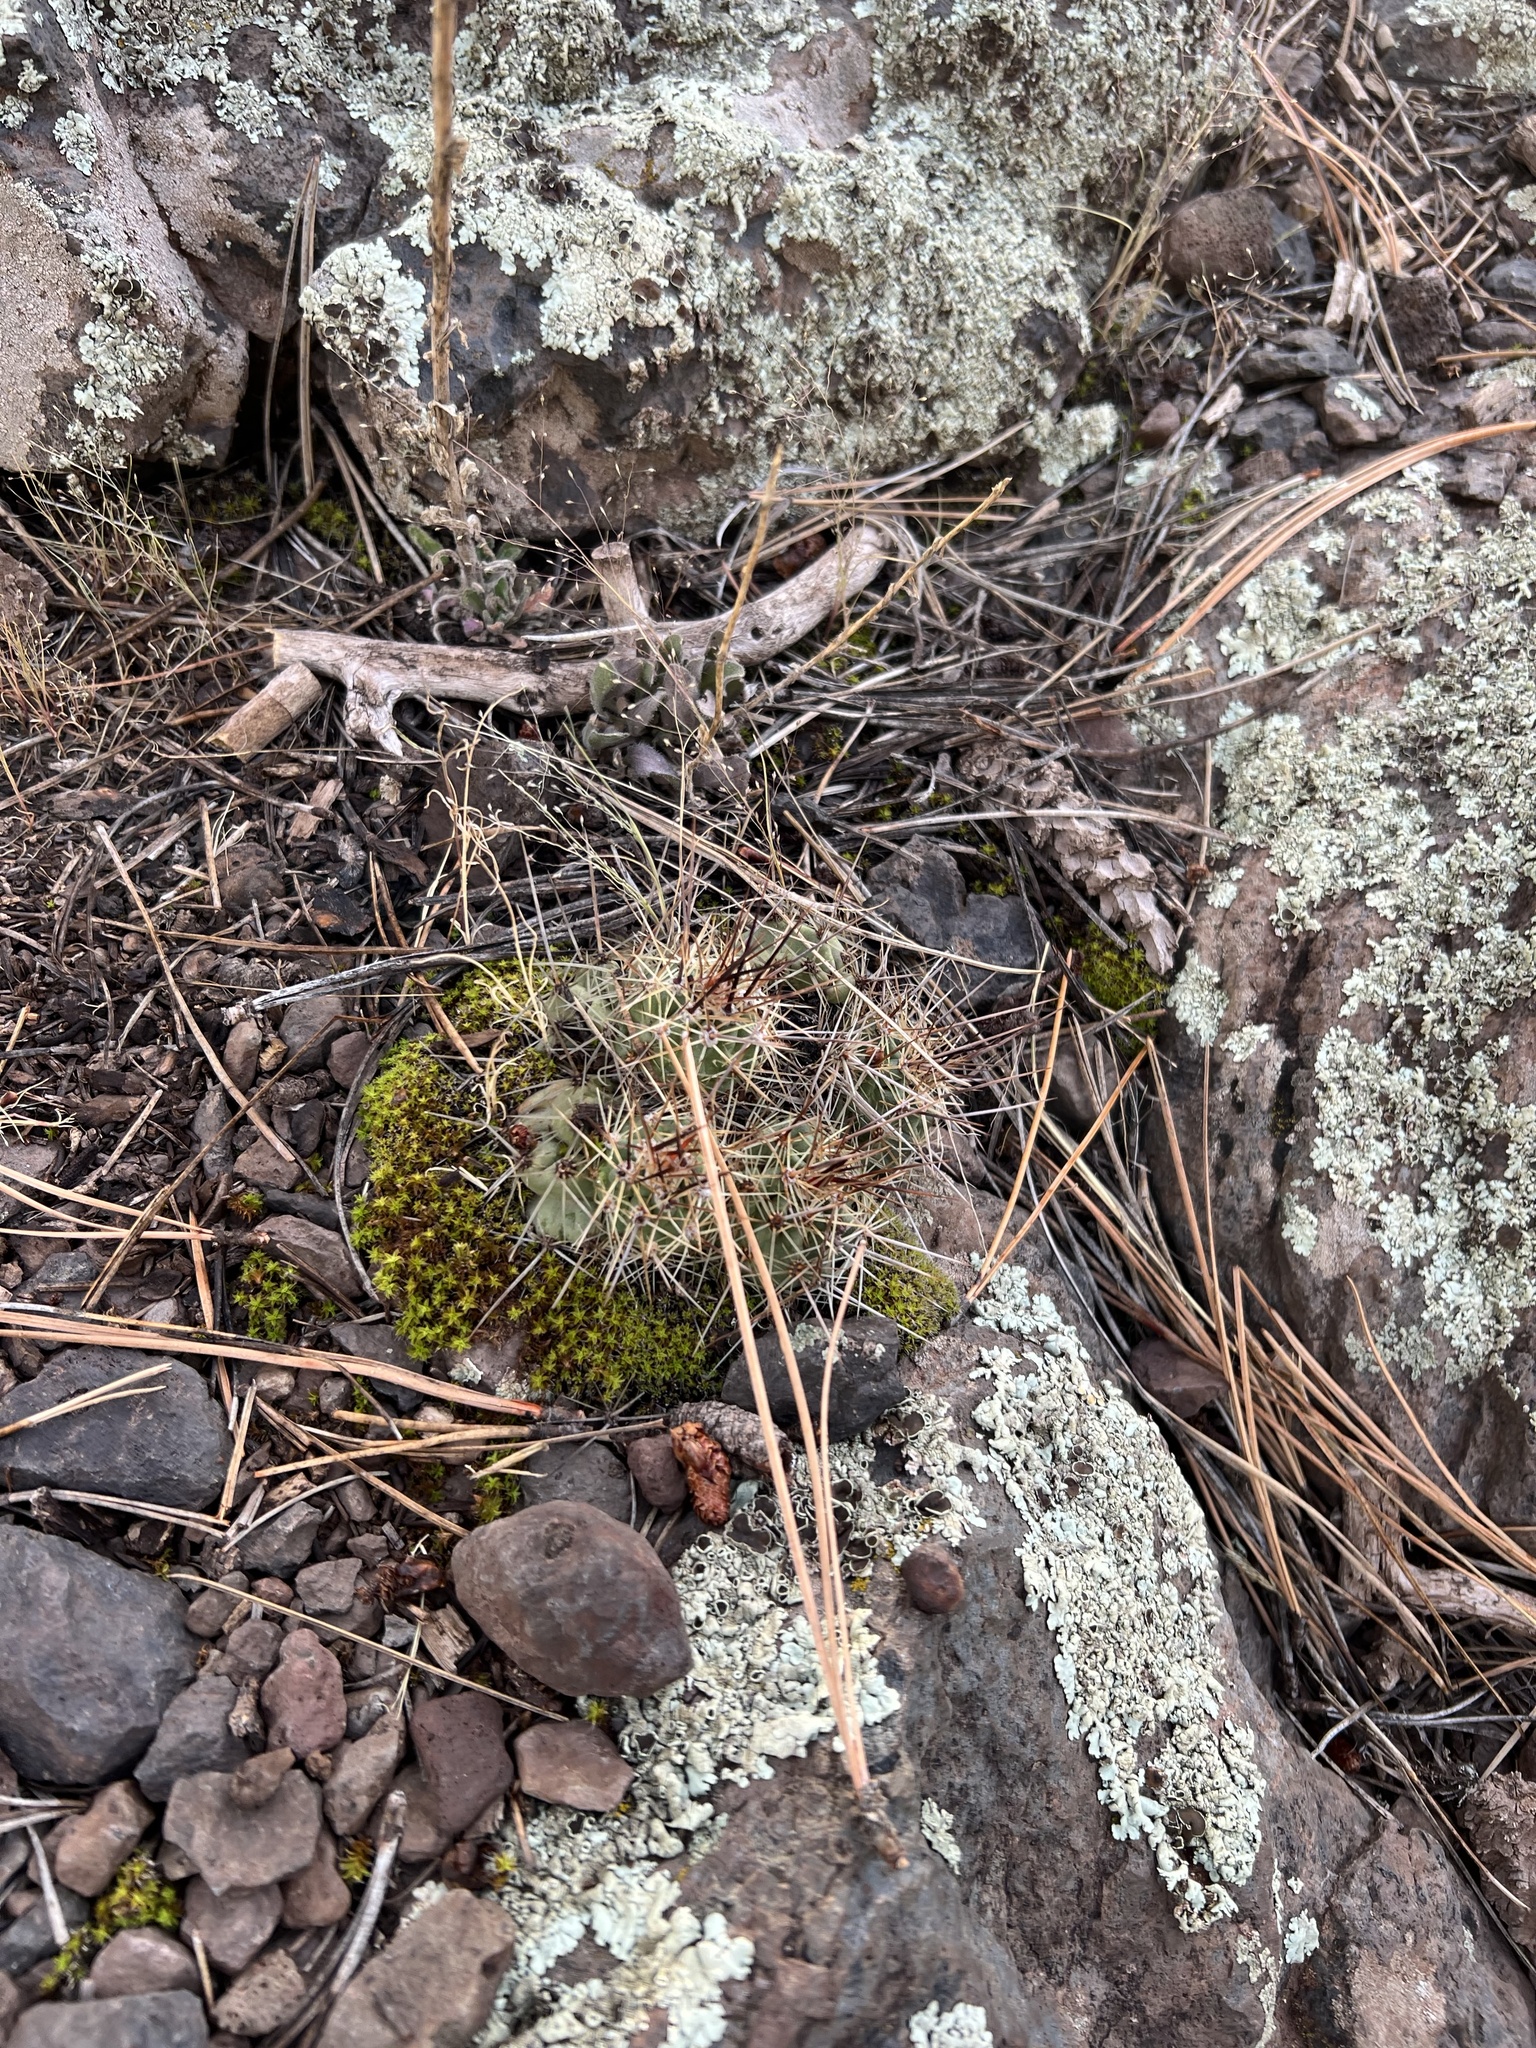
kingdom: Plantae
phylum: Tracheophyta
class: Magnoliopsida
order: Caryophyllales
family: Cactaceae
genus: Echinocereus
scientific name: Echinocereus bakeri
